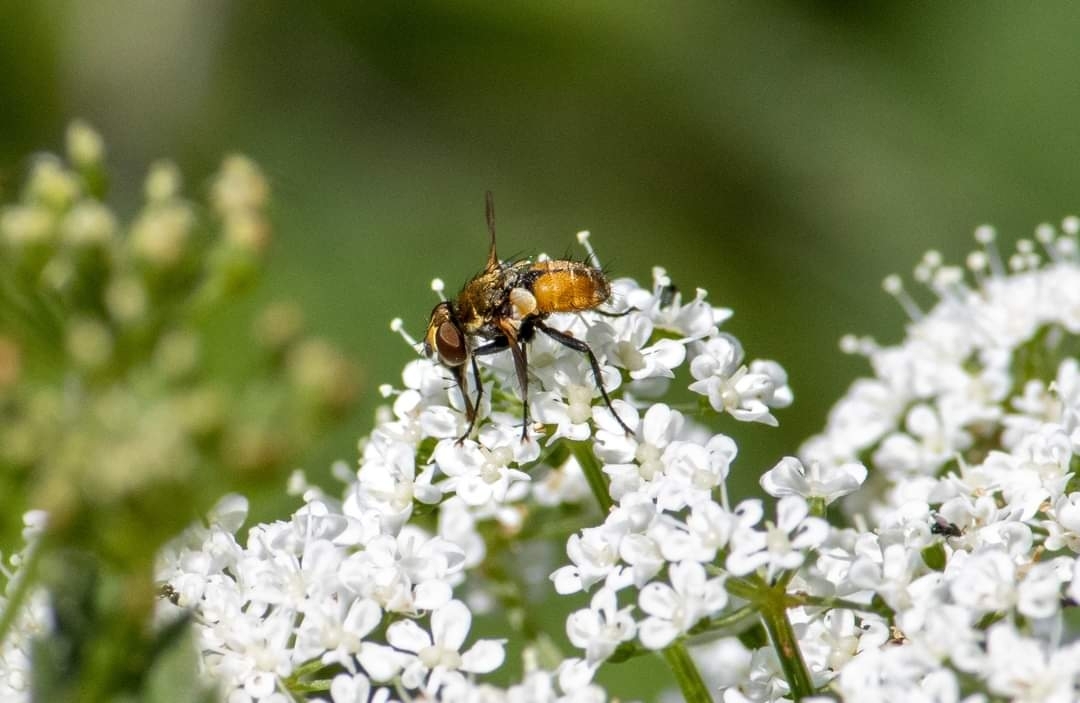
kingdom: Animalia
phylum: Arthropoda
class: Insecta
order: Diptera
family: Tachinidae
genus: Eliozeta
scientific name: Eliozeta pellucens
